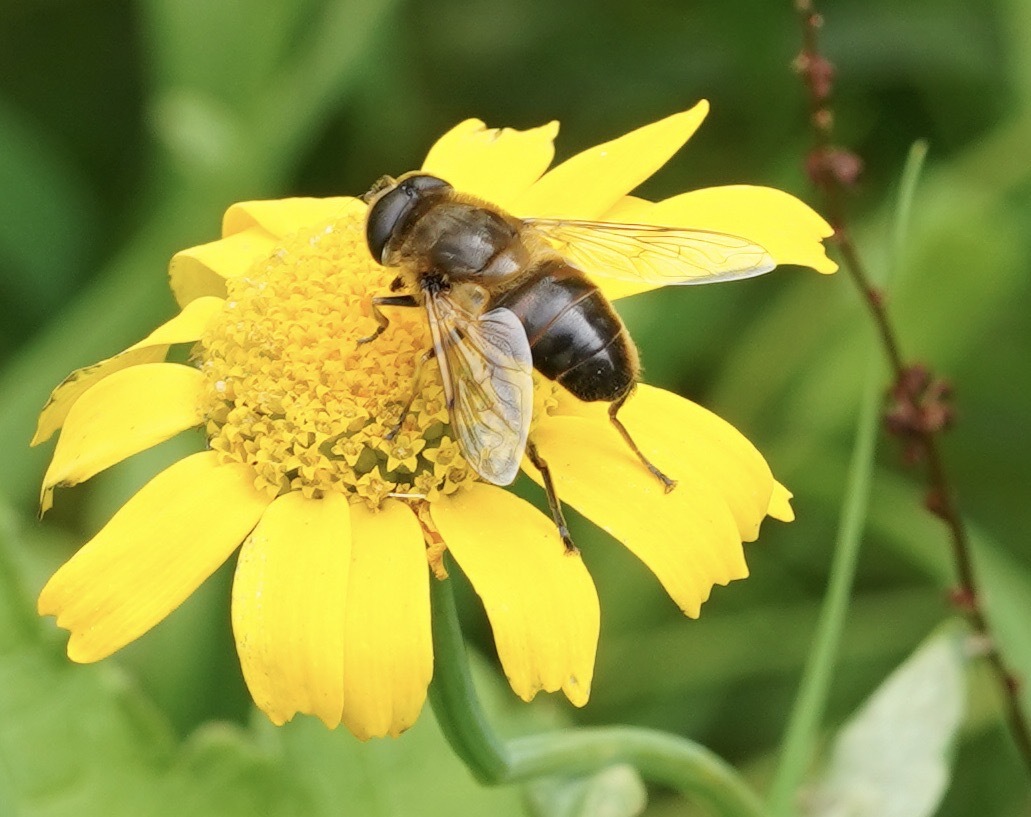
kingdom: Animalia
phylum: Arthropoda
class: Insecta
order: Diptera
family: Syrphidae
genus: Eristalis
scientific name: Eristalis tenax
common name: Drone fly
